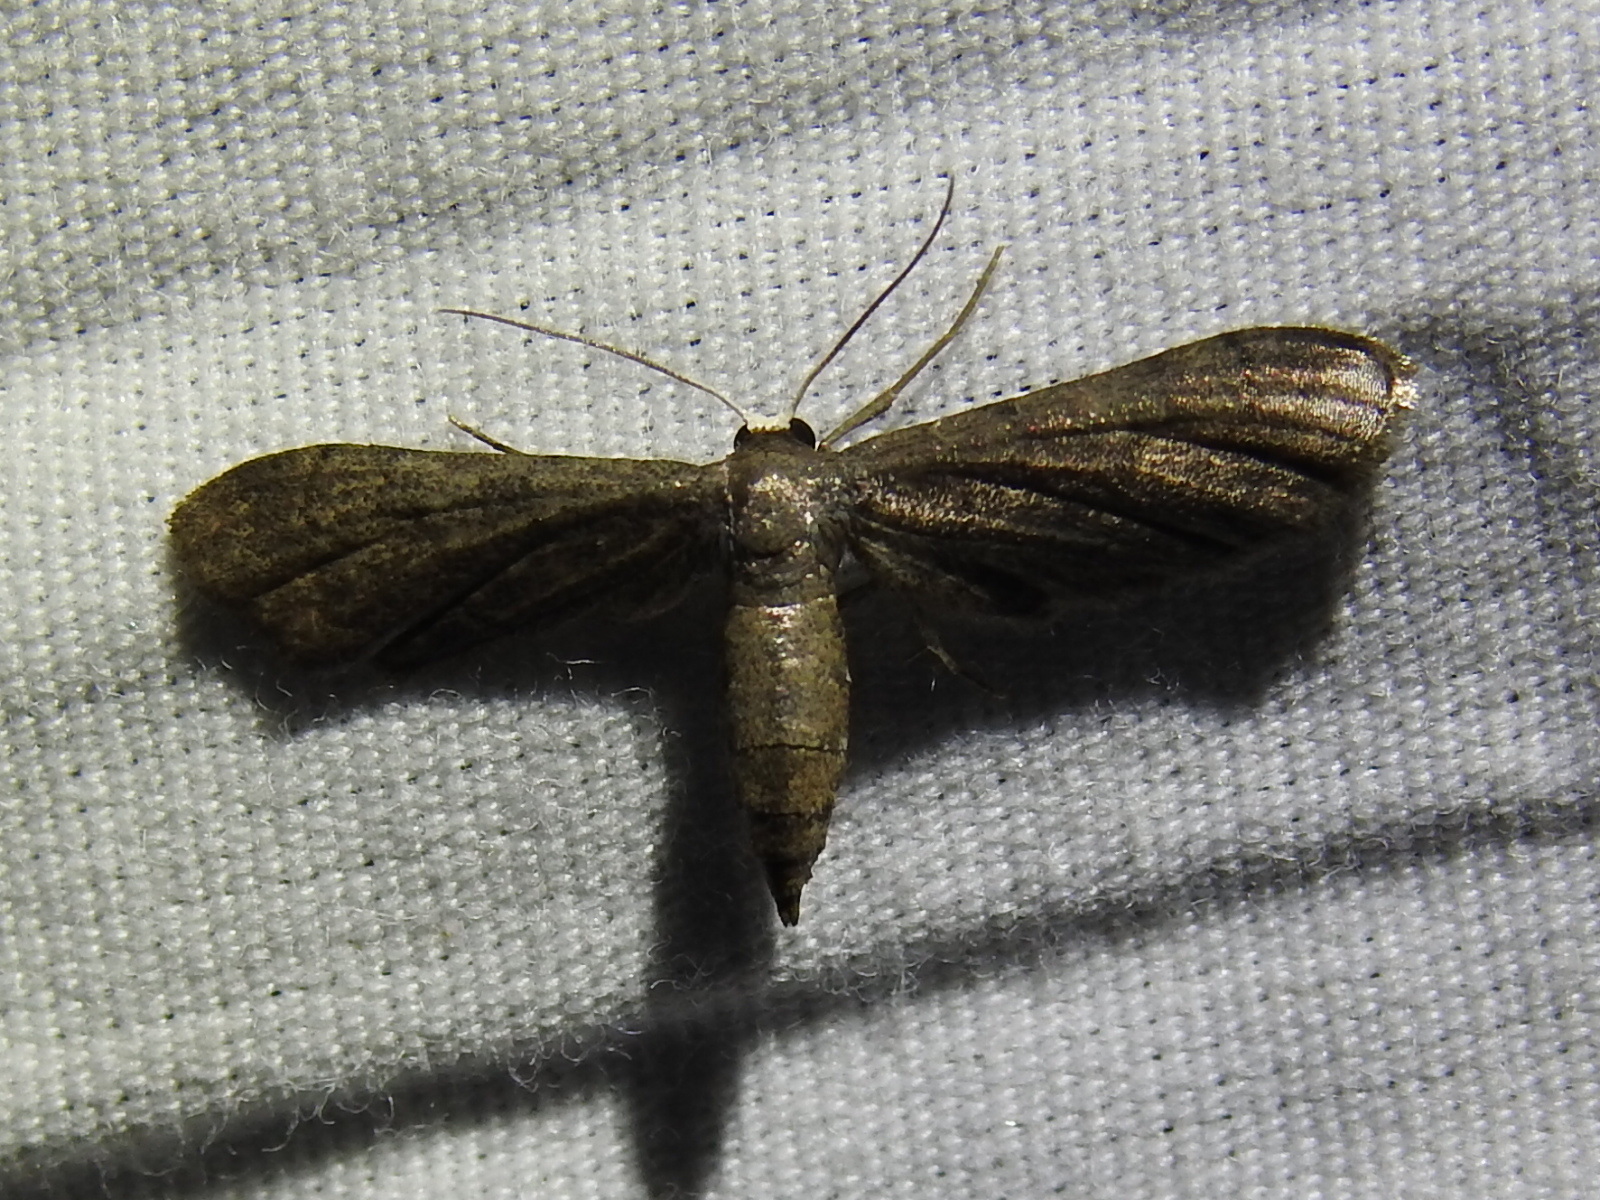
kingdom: Animalia
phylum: Arthropoda
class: Insecta
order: Lepidoptera
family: Geometridae
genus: Protoproutia
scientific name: Protoproutia laredoata
